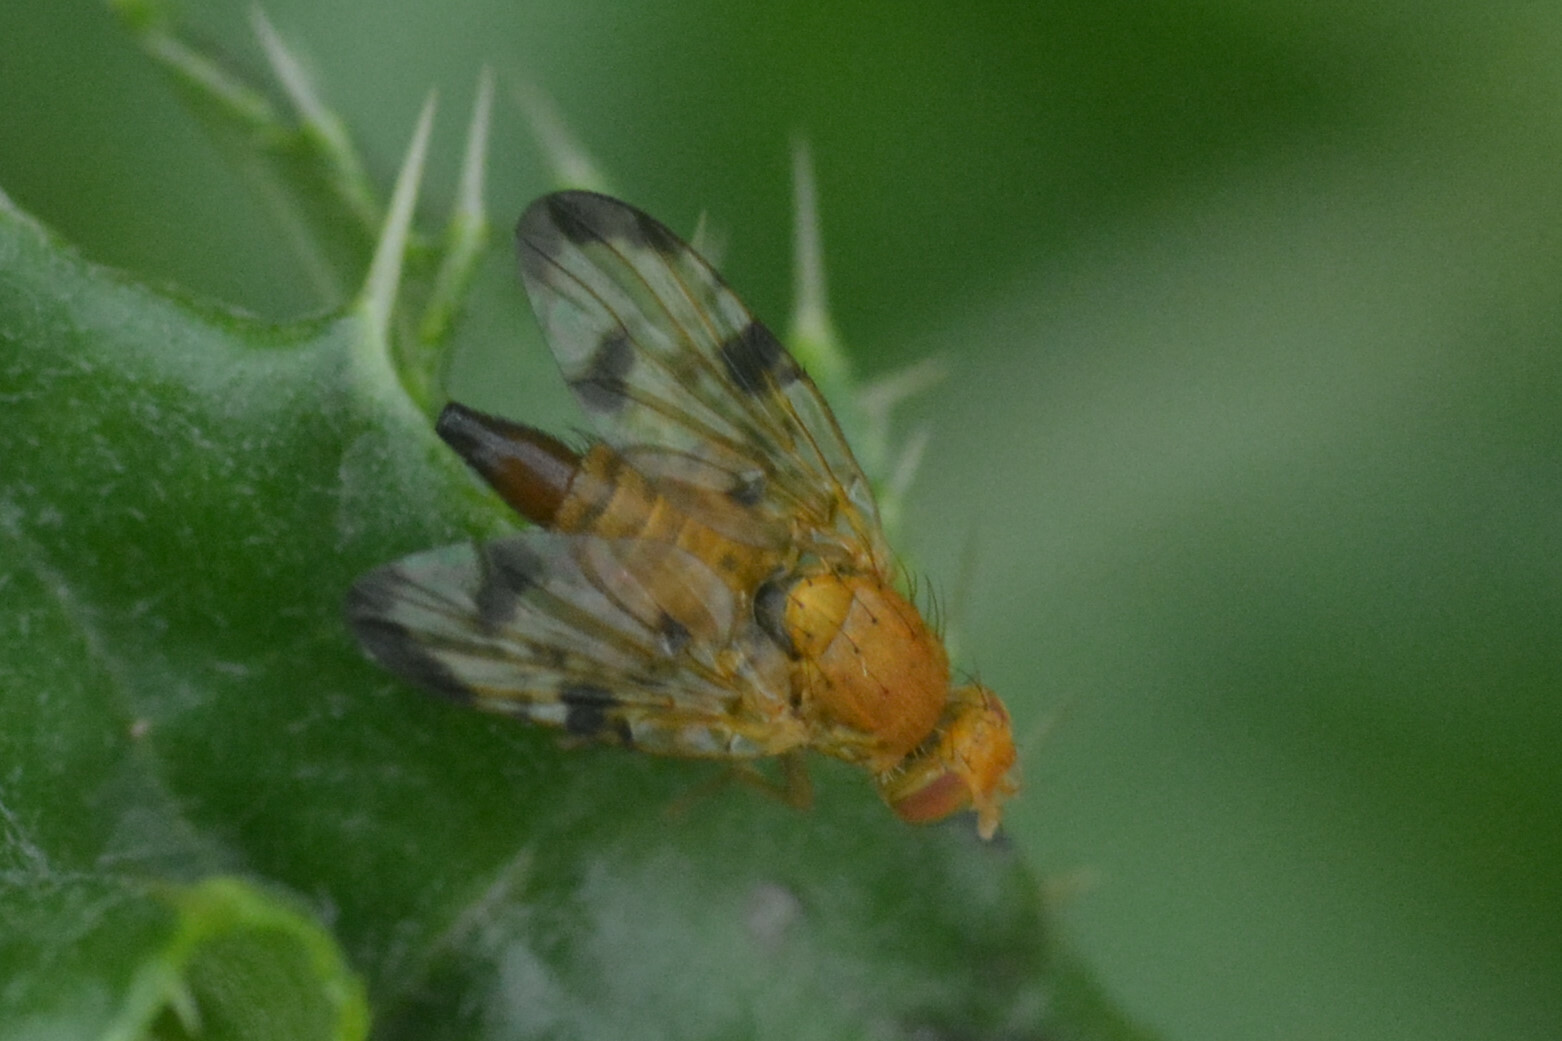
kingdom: Animalia
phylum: Arthropoda
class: Insecta
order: Diptera
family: Tephritidae
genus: Xyphosia
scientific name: Xyphosia miliaria
